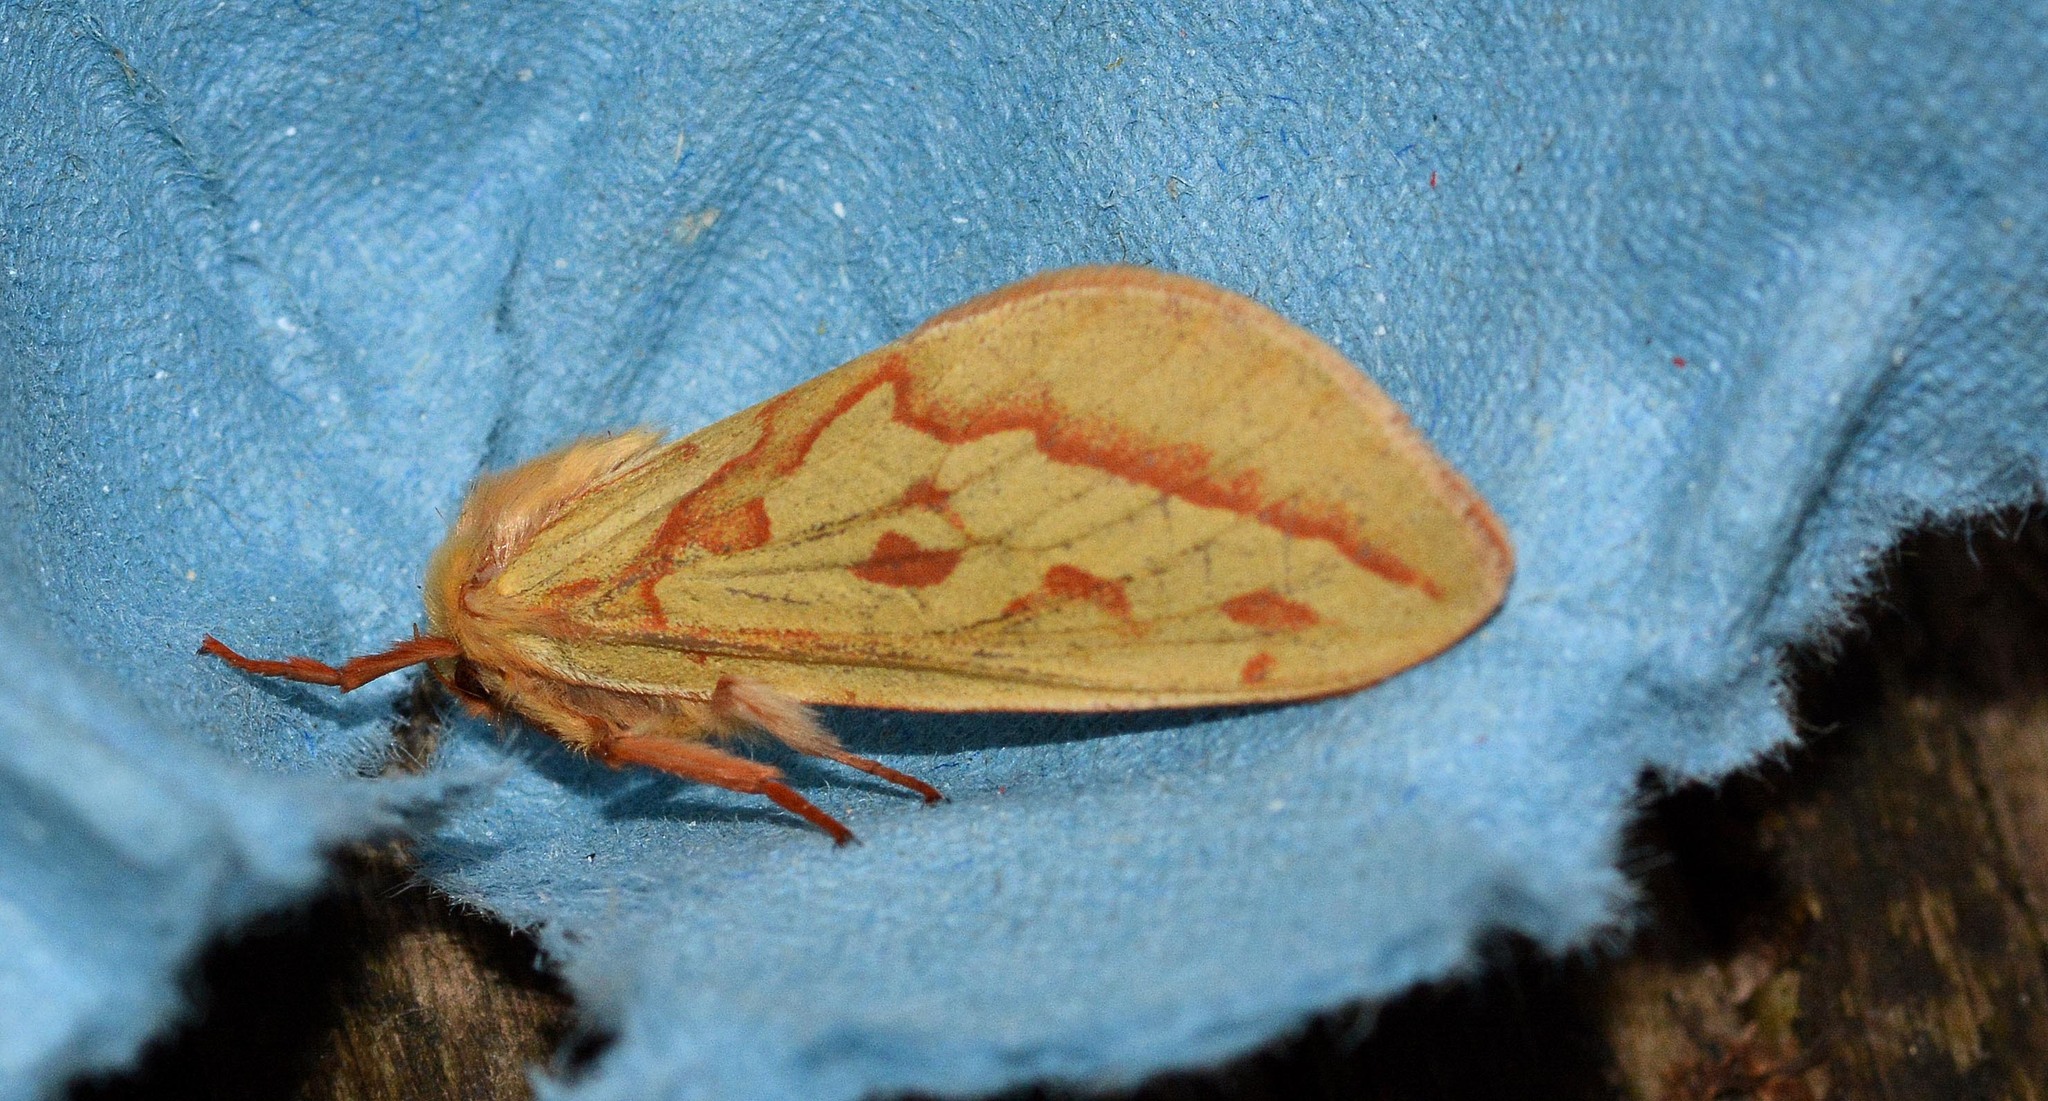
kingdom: Animalia
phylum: Arthropoda
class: Insecta
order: Lepidoptera
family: Hepialidae
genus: Hepialus
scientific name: Hepialus humuli
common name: Ghost moth
